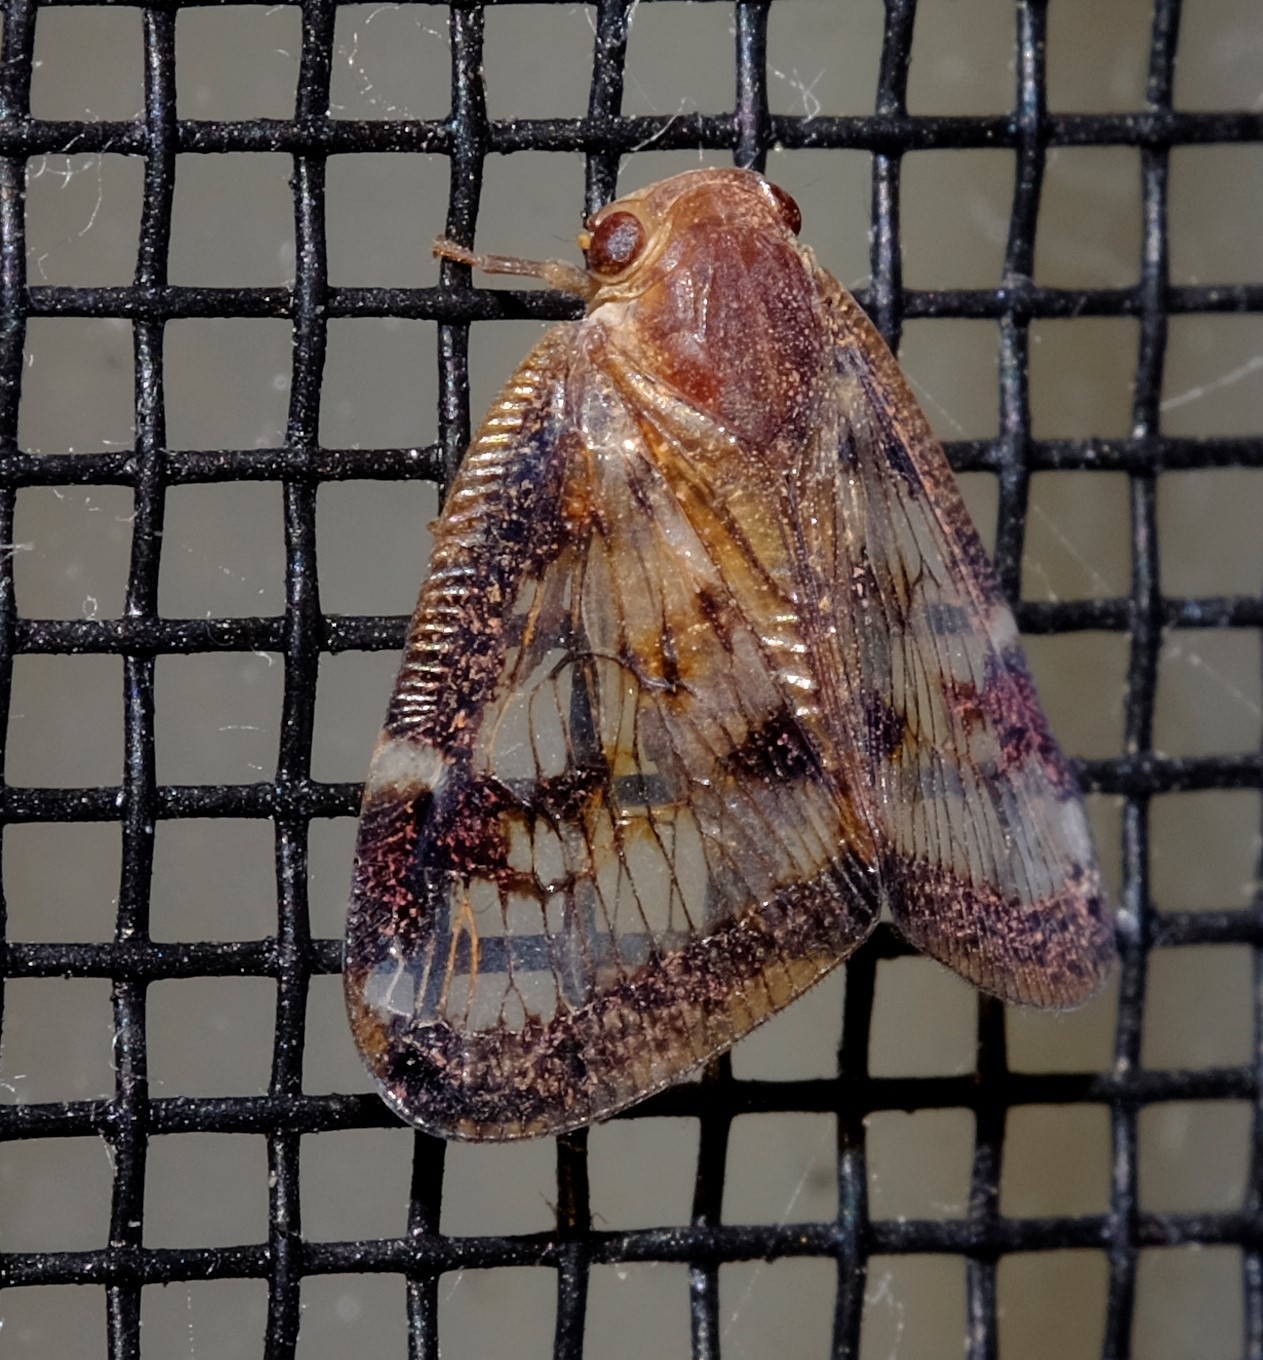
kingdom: Animalia
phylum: Arthropoda
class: Insecta
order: Hemiptera
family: Ricaniidae
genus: Scolypopa
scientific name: Scolypopa australis
